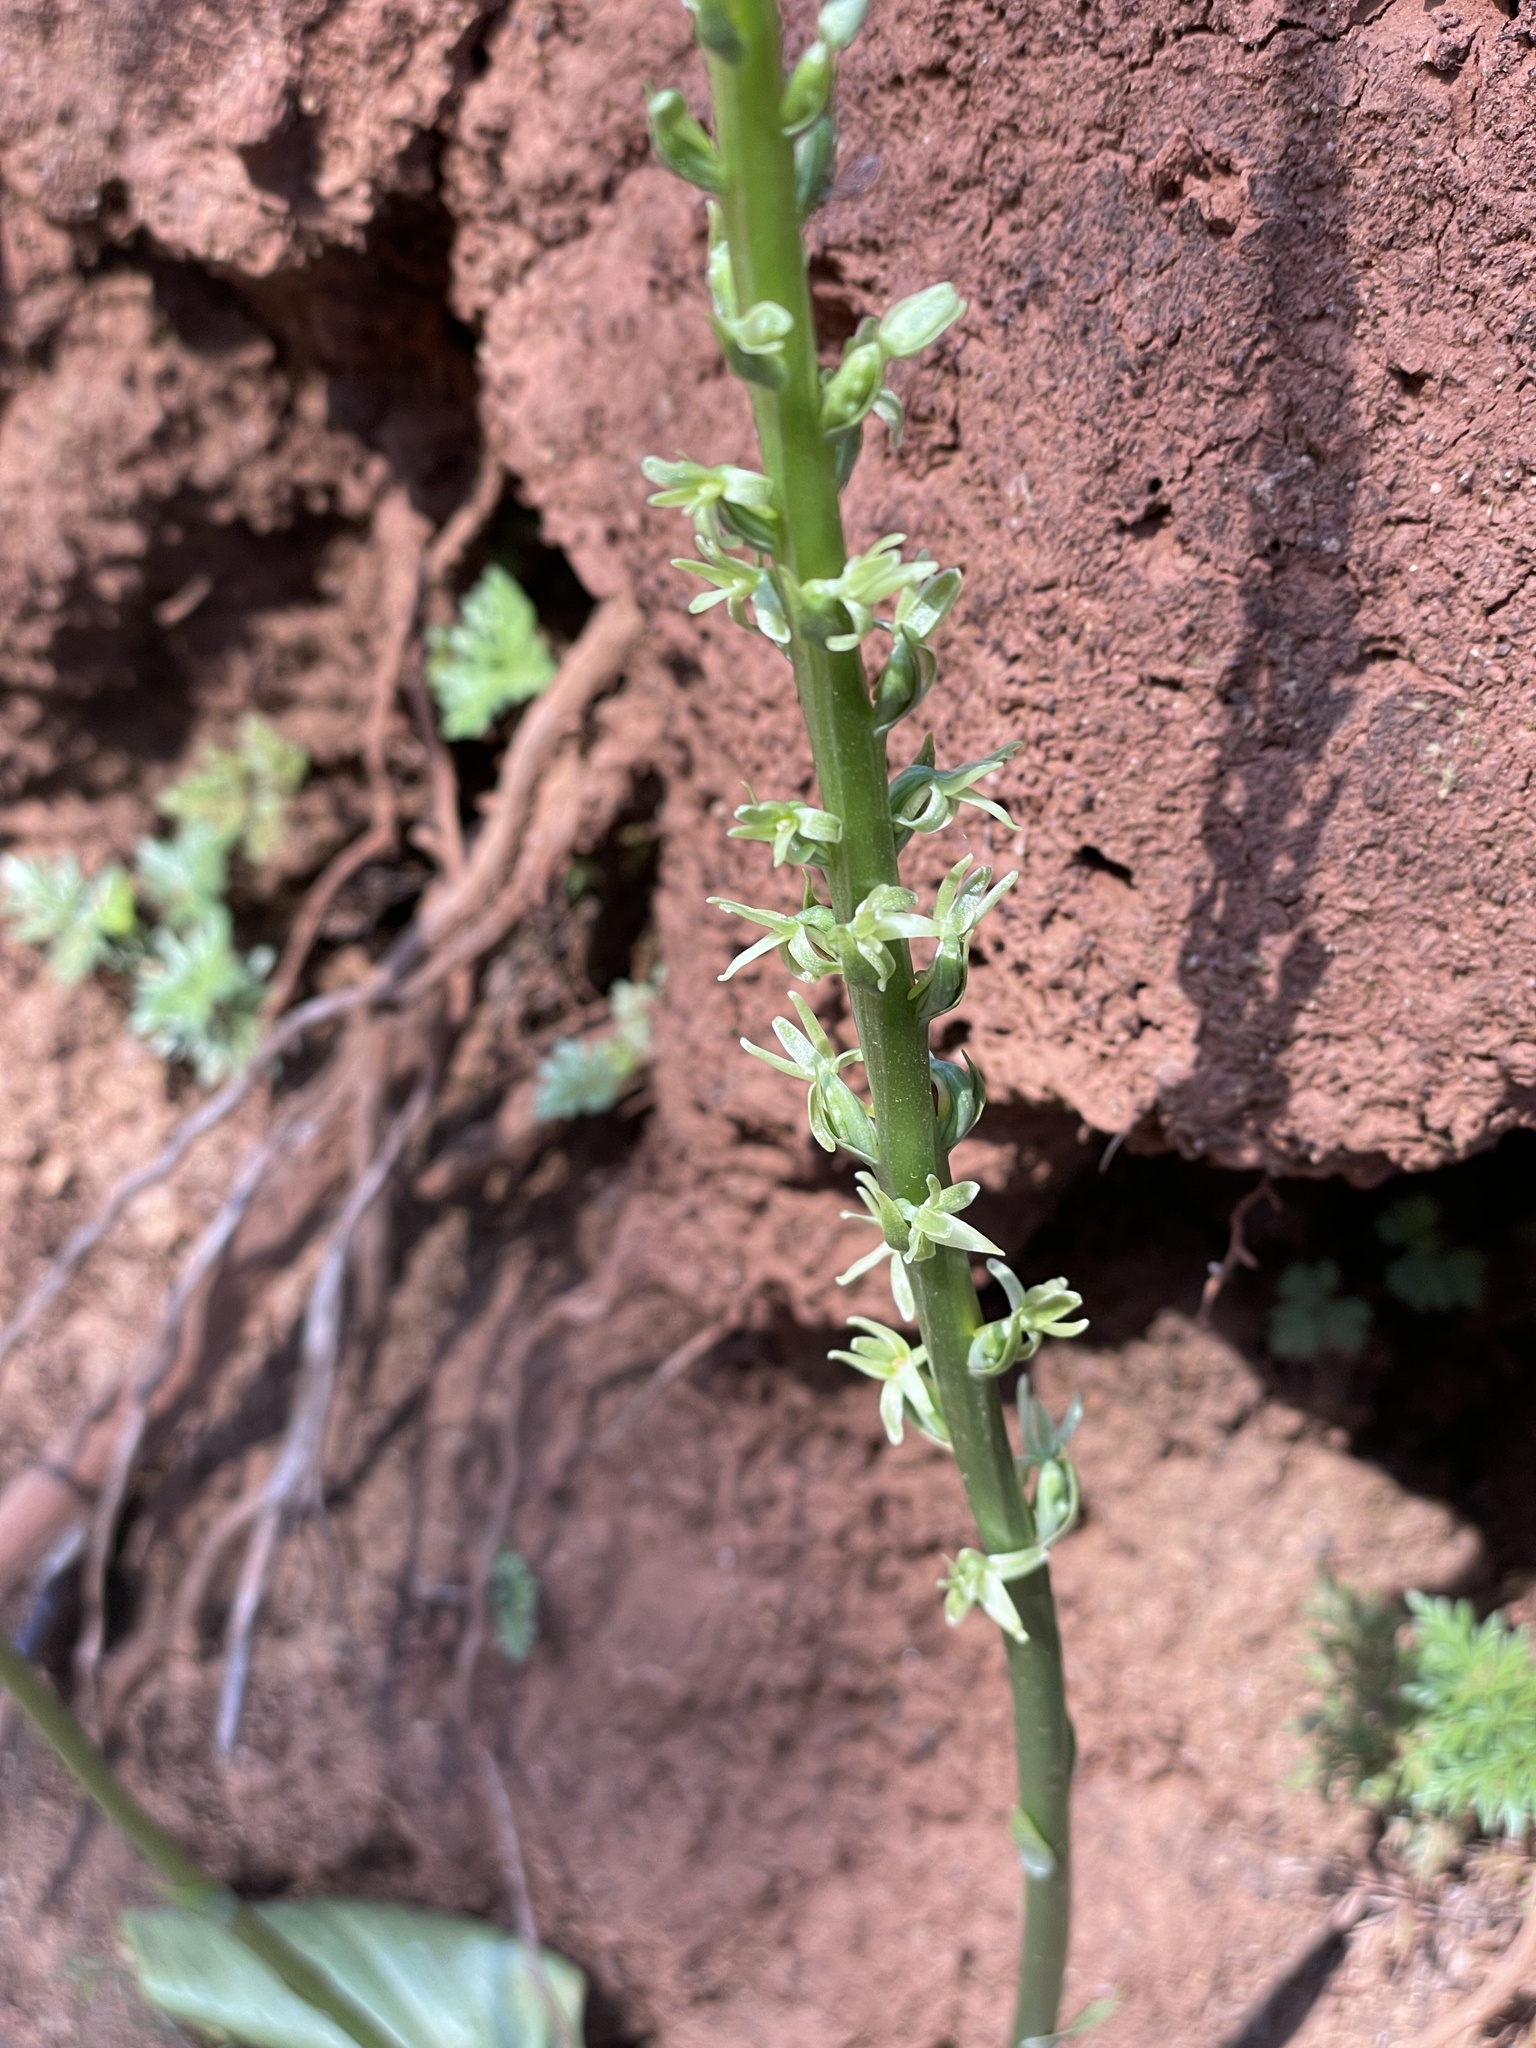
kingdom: Plantae
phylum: Tracheophyta
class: Liliopsida
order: Asparagales
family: Orchidaceae
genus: Platanthera
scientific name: Platanthera leptopetala
